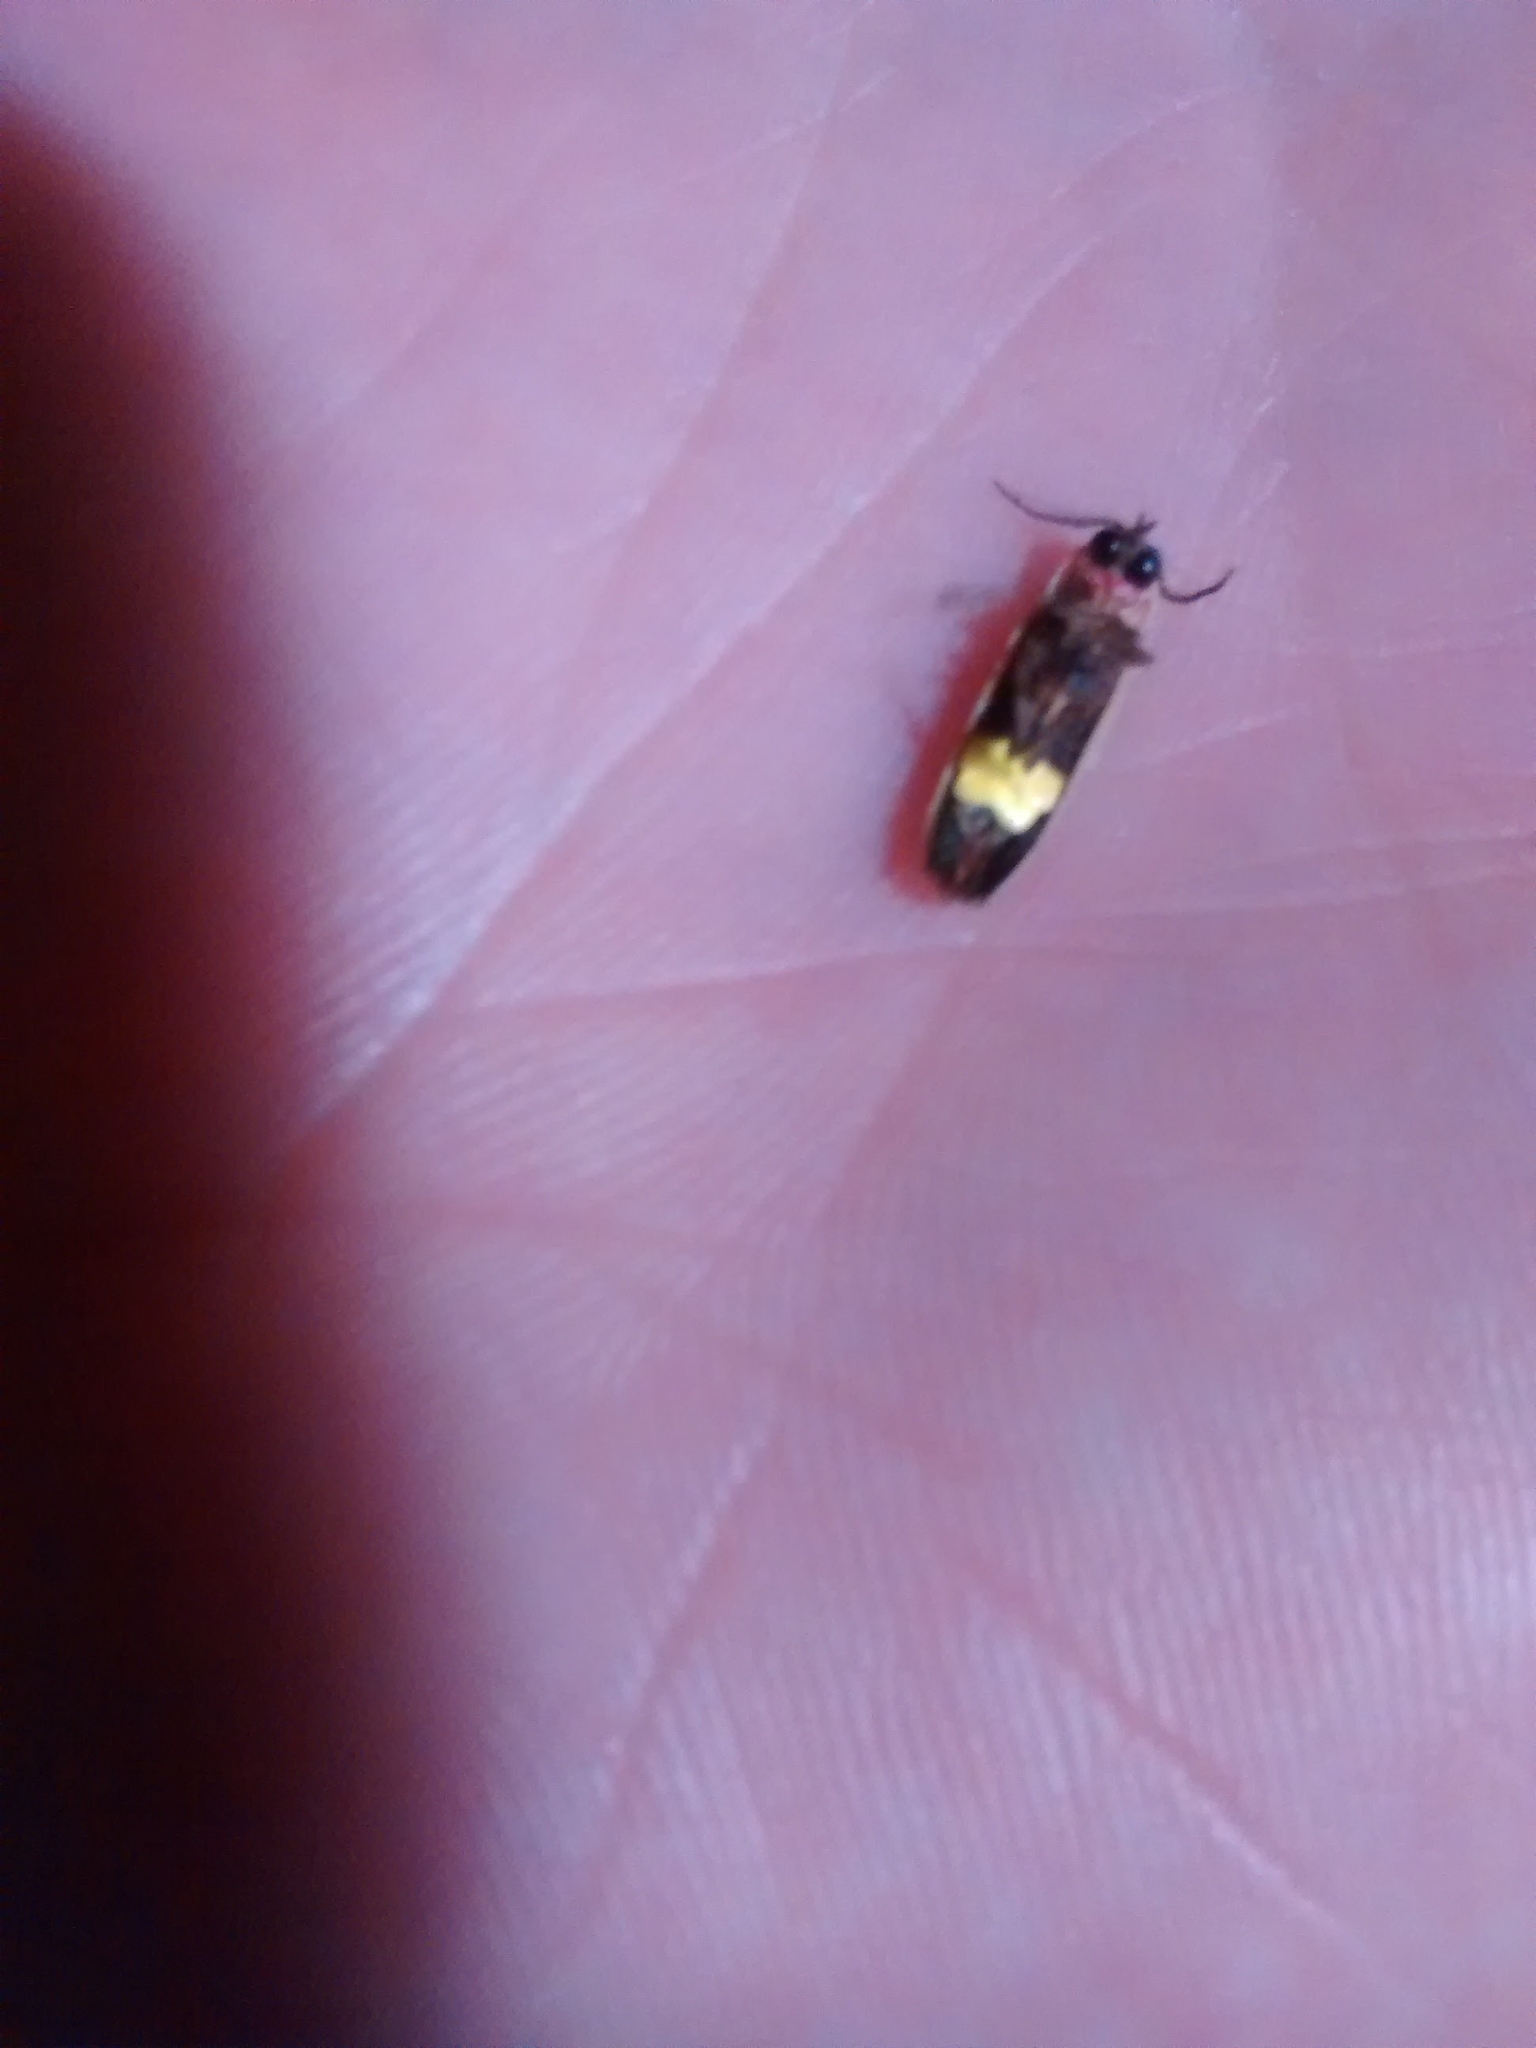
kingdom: Animalia
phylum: Arthropoda
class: Insecta
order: Coleoptera
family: Lampyridae
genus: Photinus
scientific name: Photinus signaticollis
